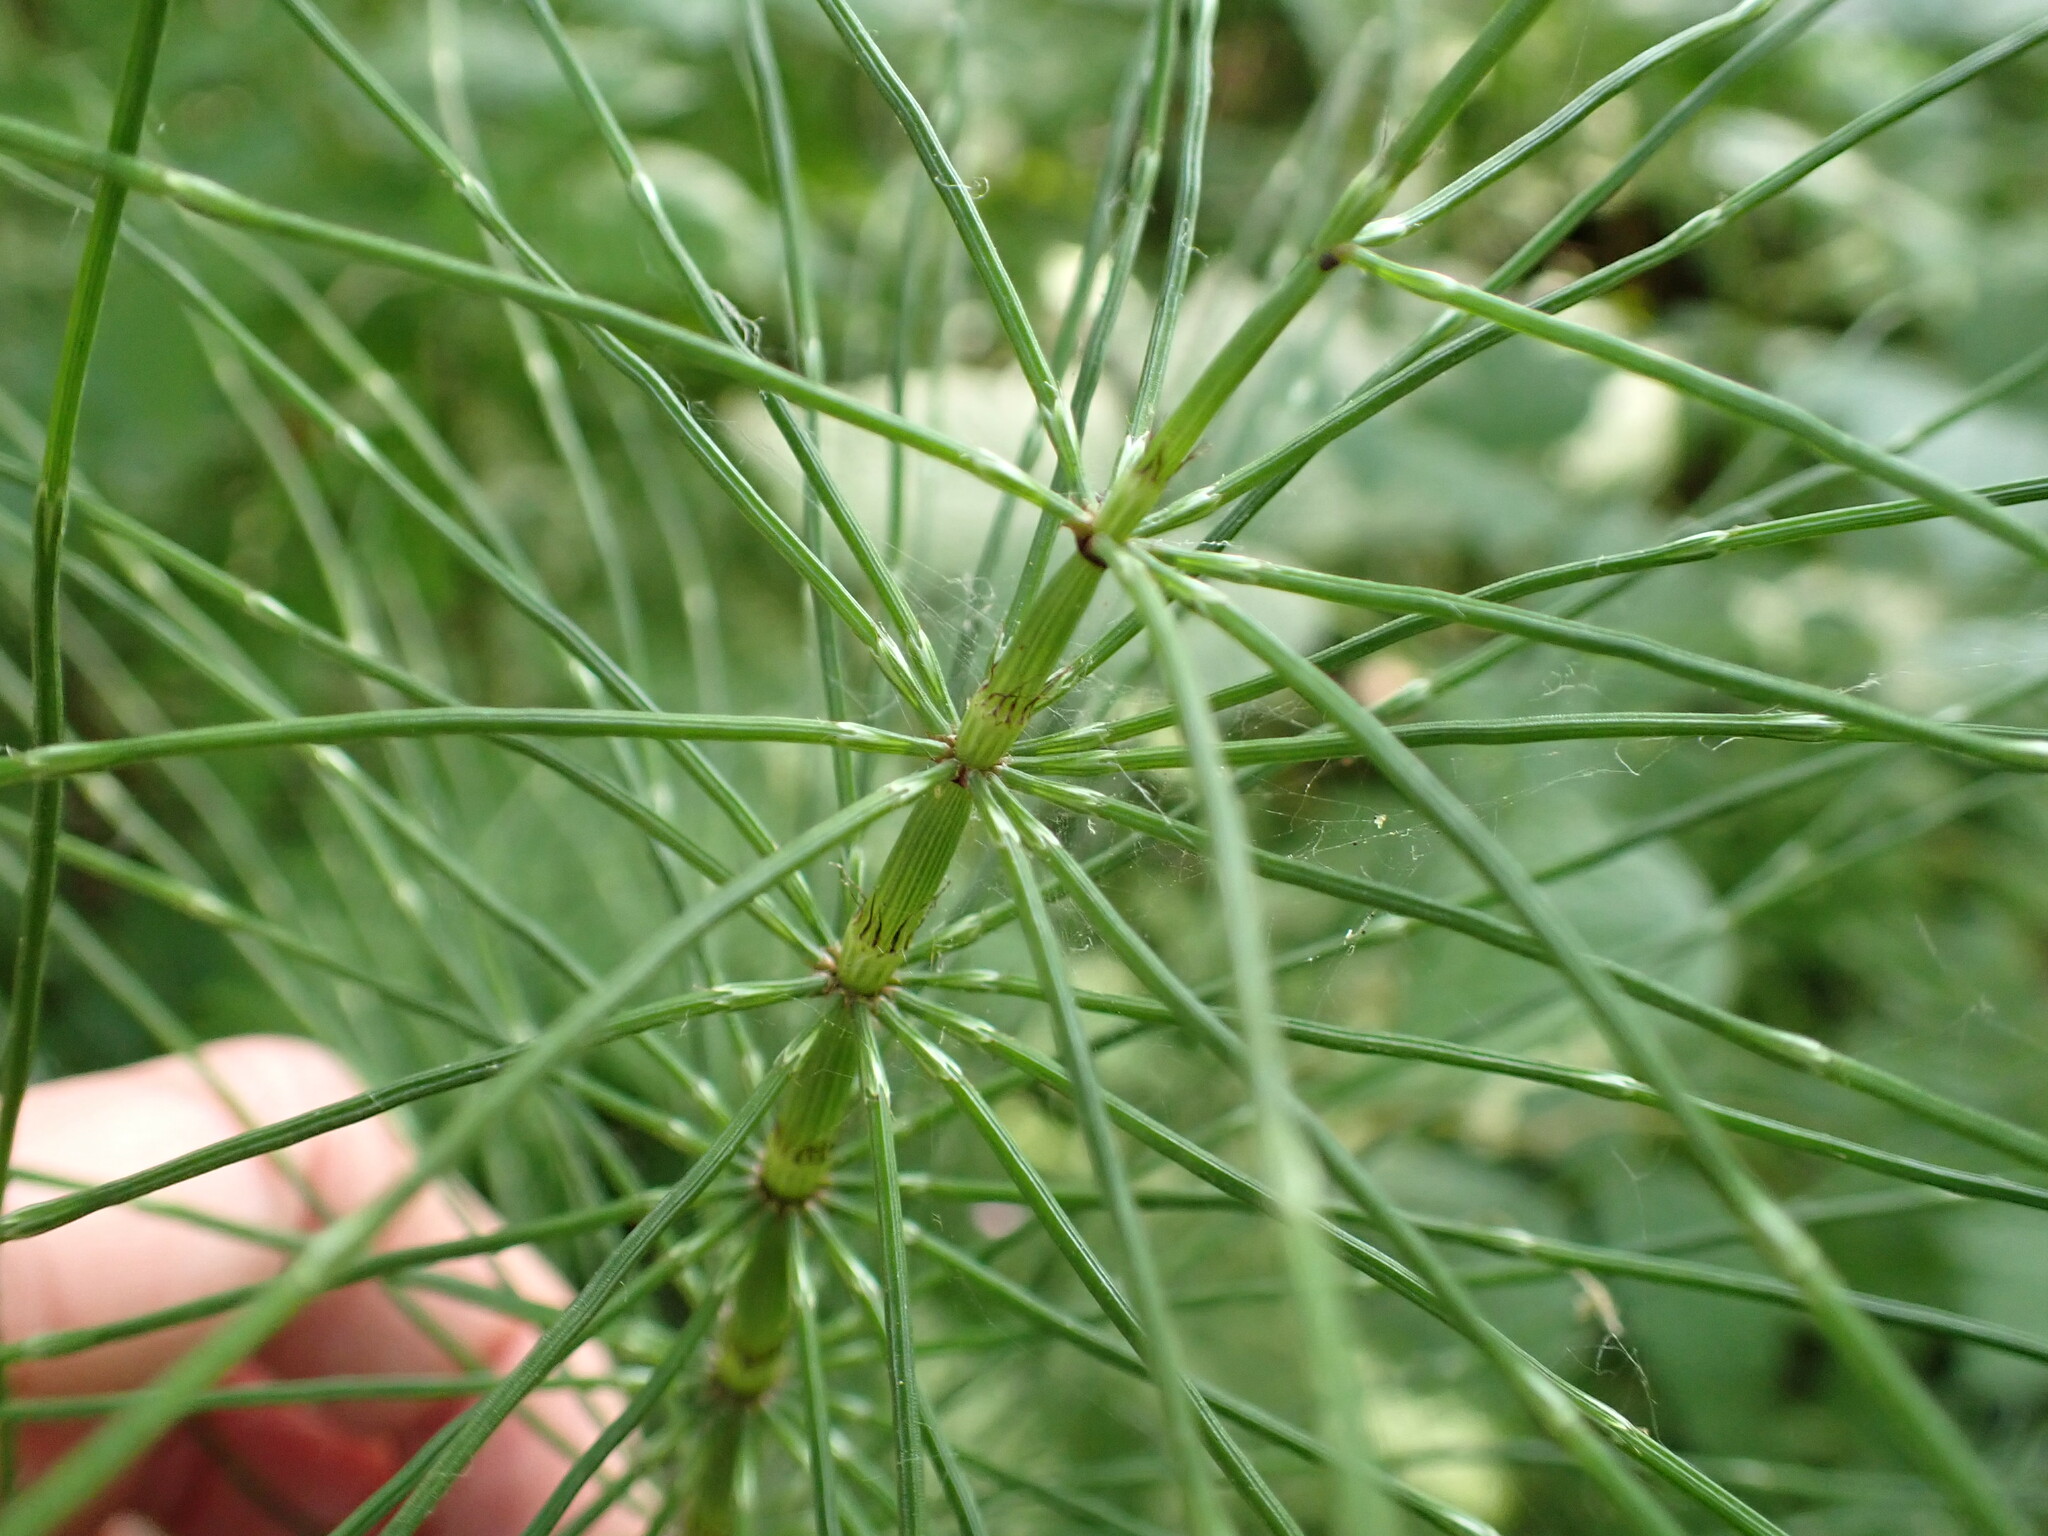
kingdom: Plantae
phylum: Tracheophyta
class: Polypodiopsida
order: Equisetales
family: Equisetaceae
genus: Equisetum
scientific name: Equisetum braunii
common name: Braun's horsetail
